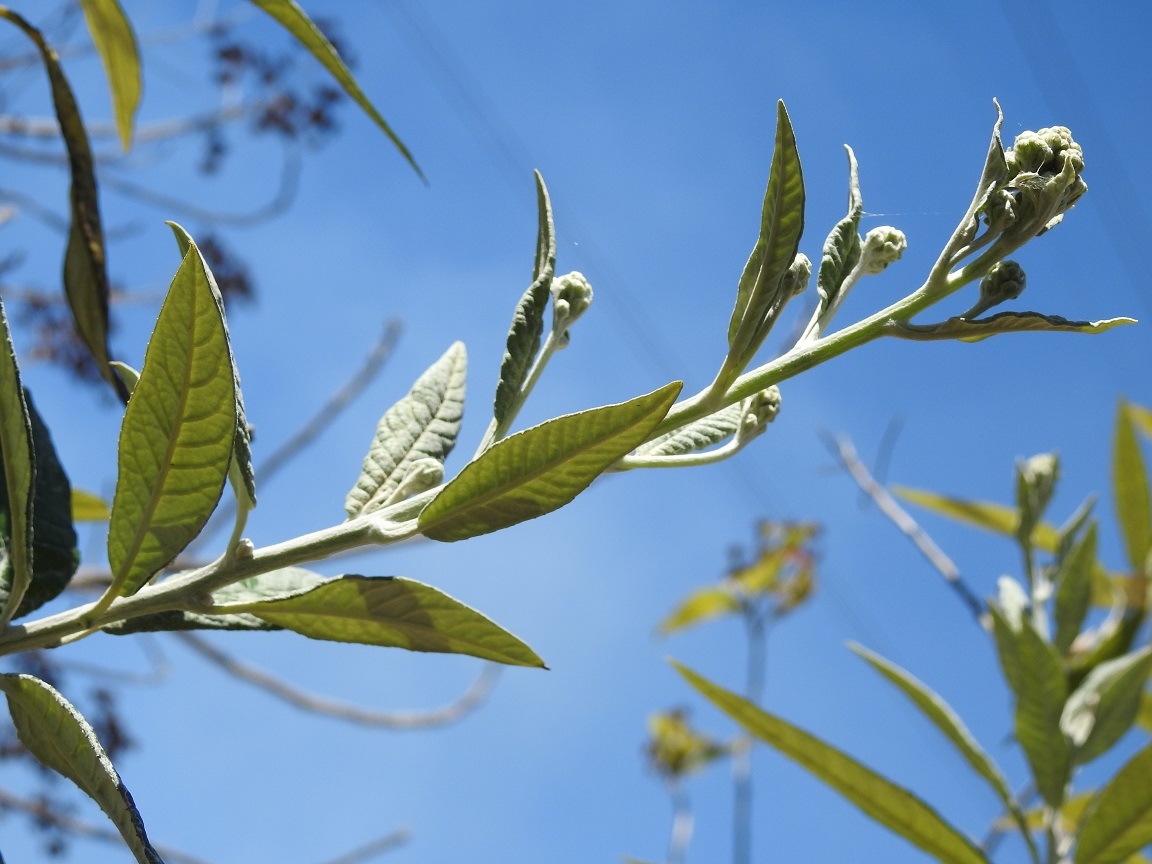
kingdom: Plantae
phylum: Tracheophyta
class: Magnoliopsida
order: Asterales
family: Asteraceae
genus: Zemisia
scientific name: Zemisia thomasii
